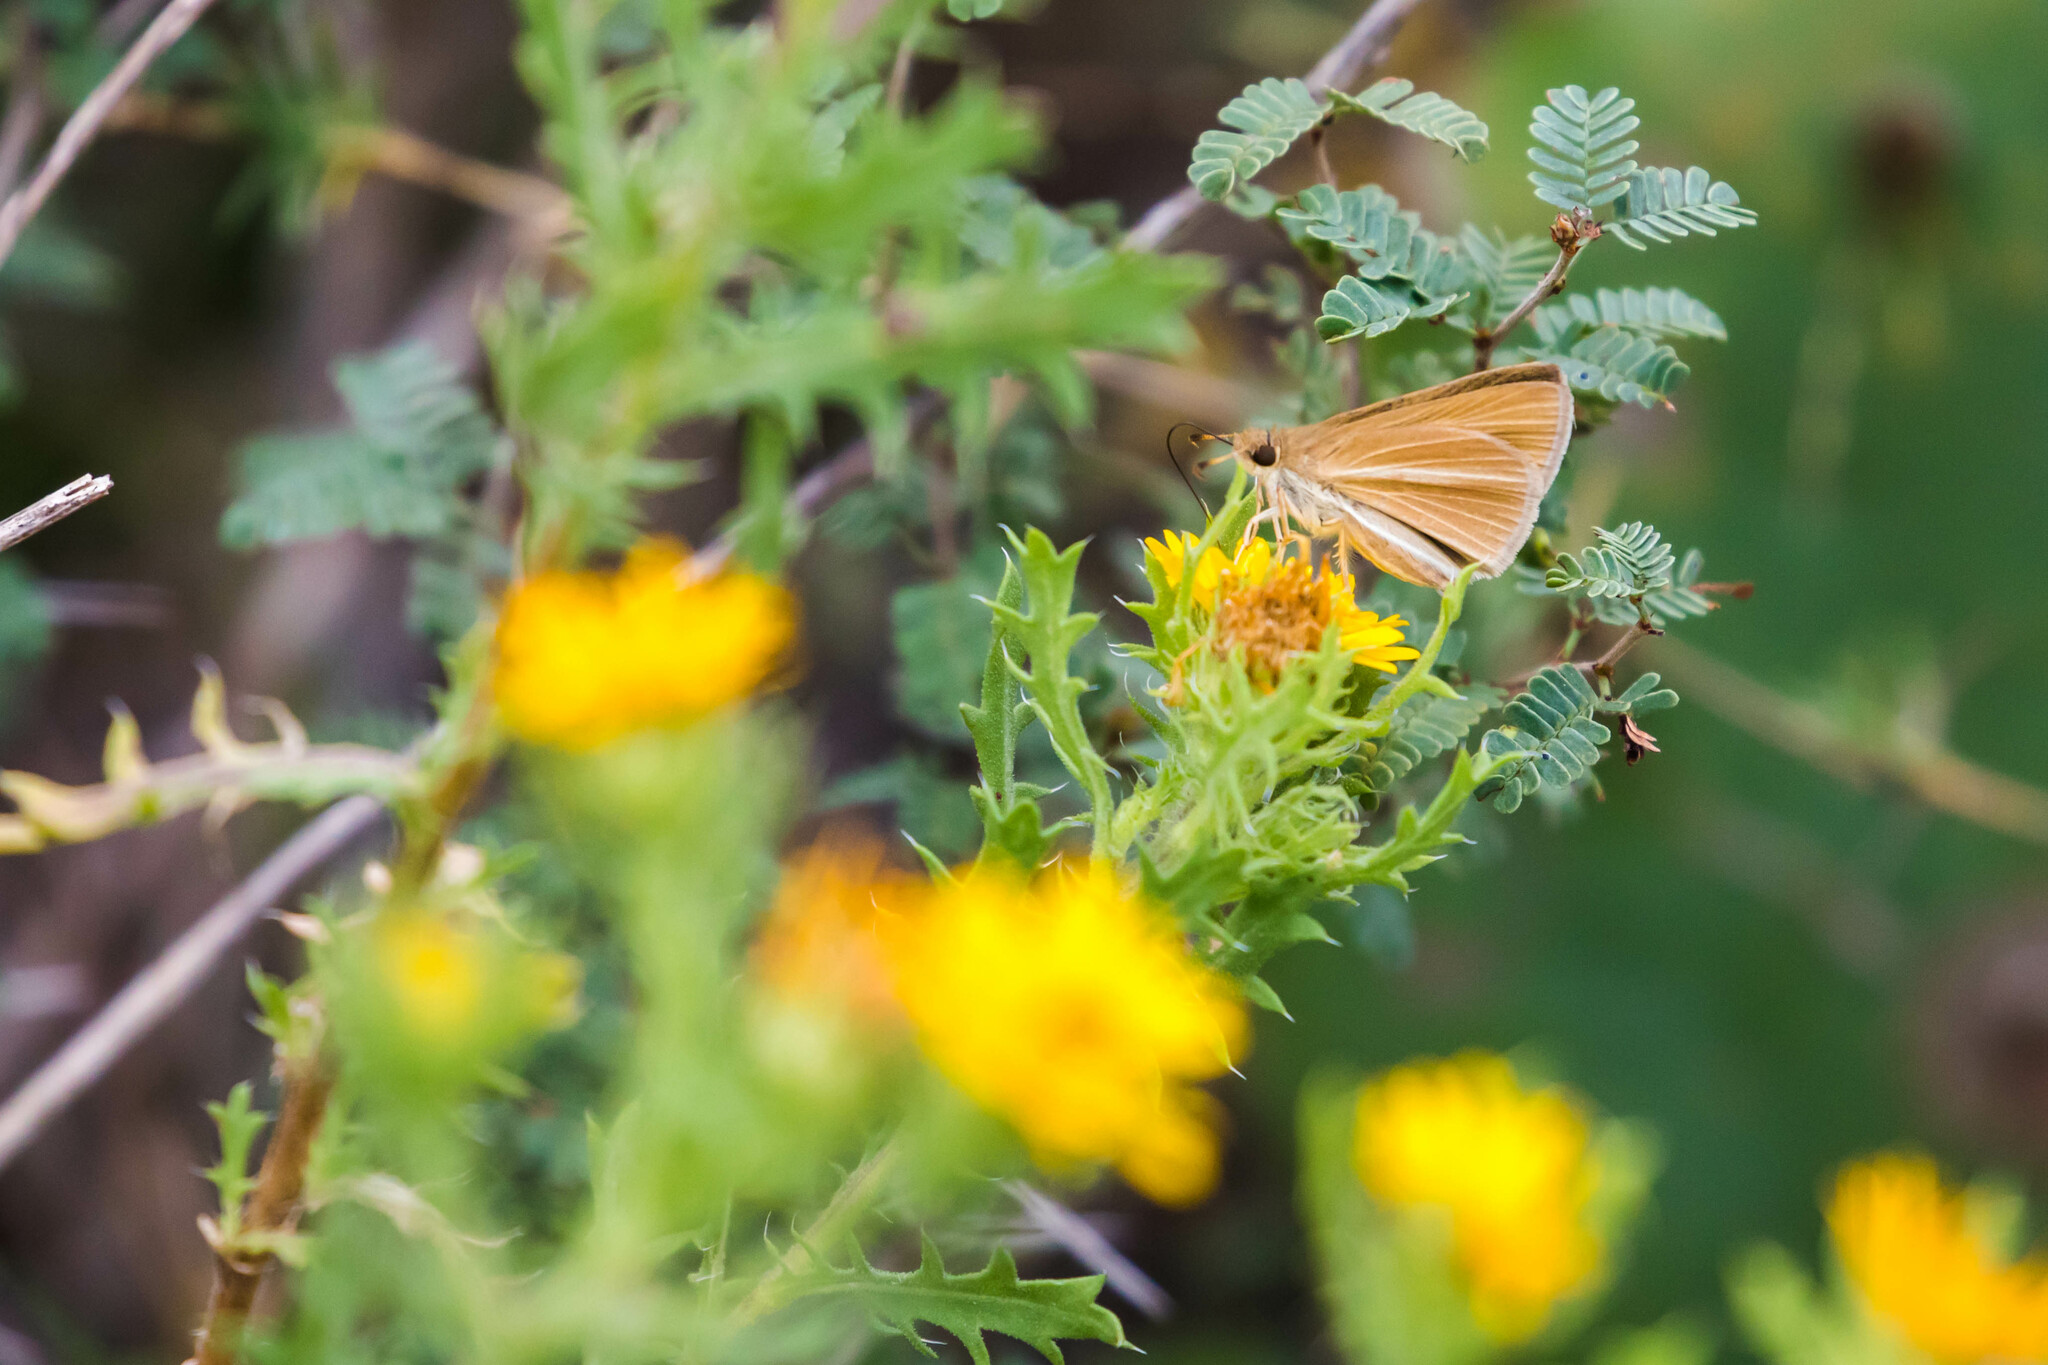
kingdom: Animalia
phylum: Arthropoda
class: Insecta
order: Lepidoptera
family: Hesperiidae
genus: Nastra
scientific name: Nastra perigenes
